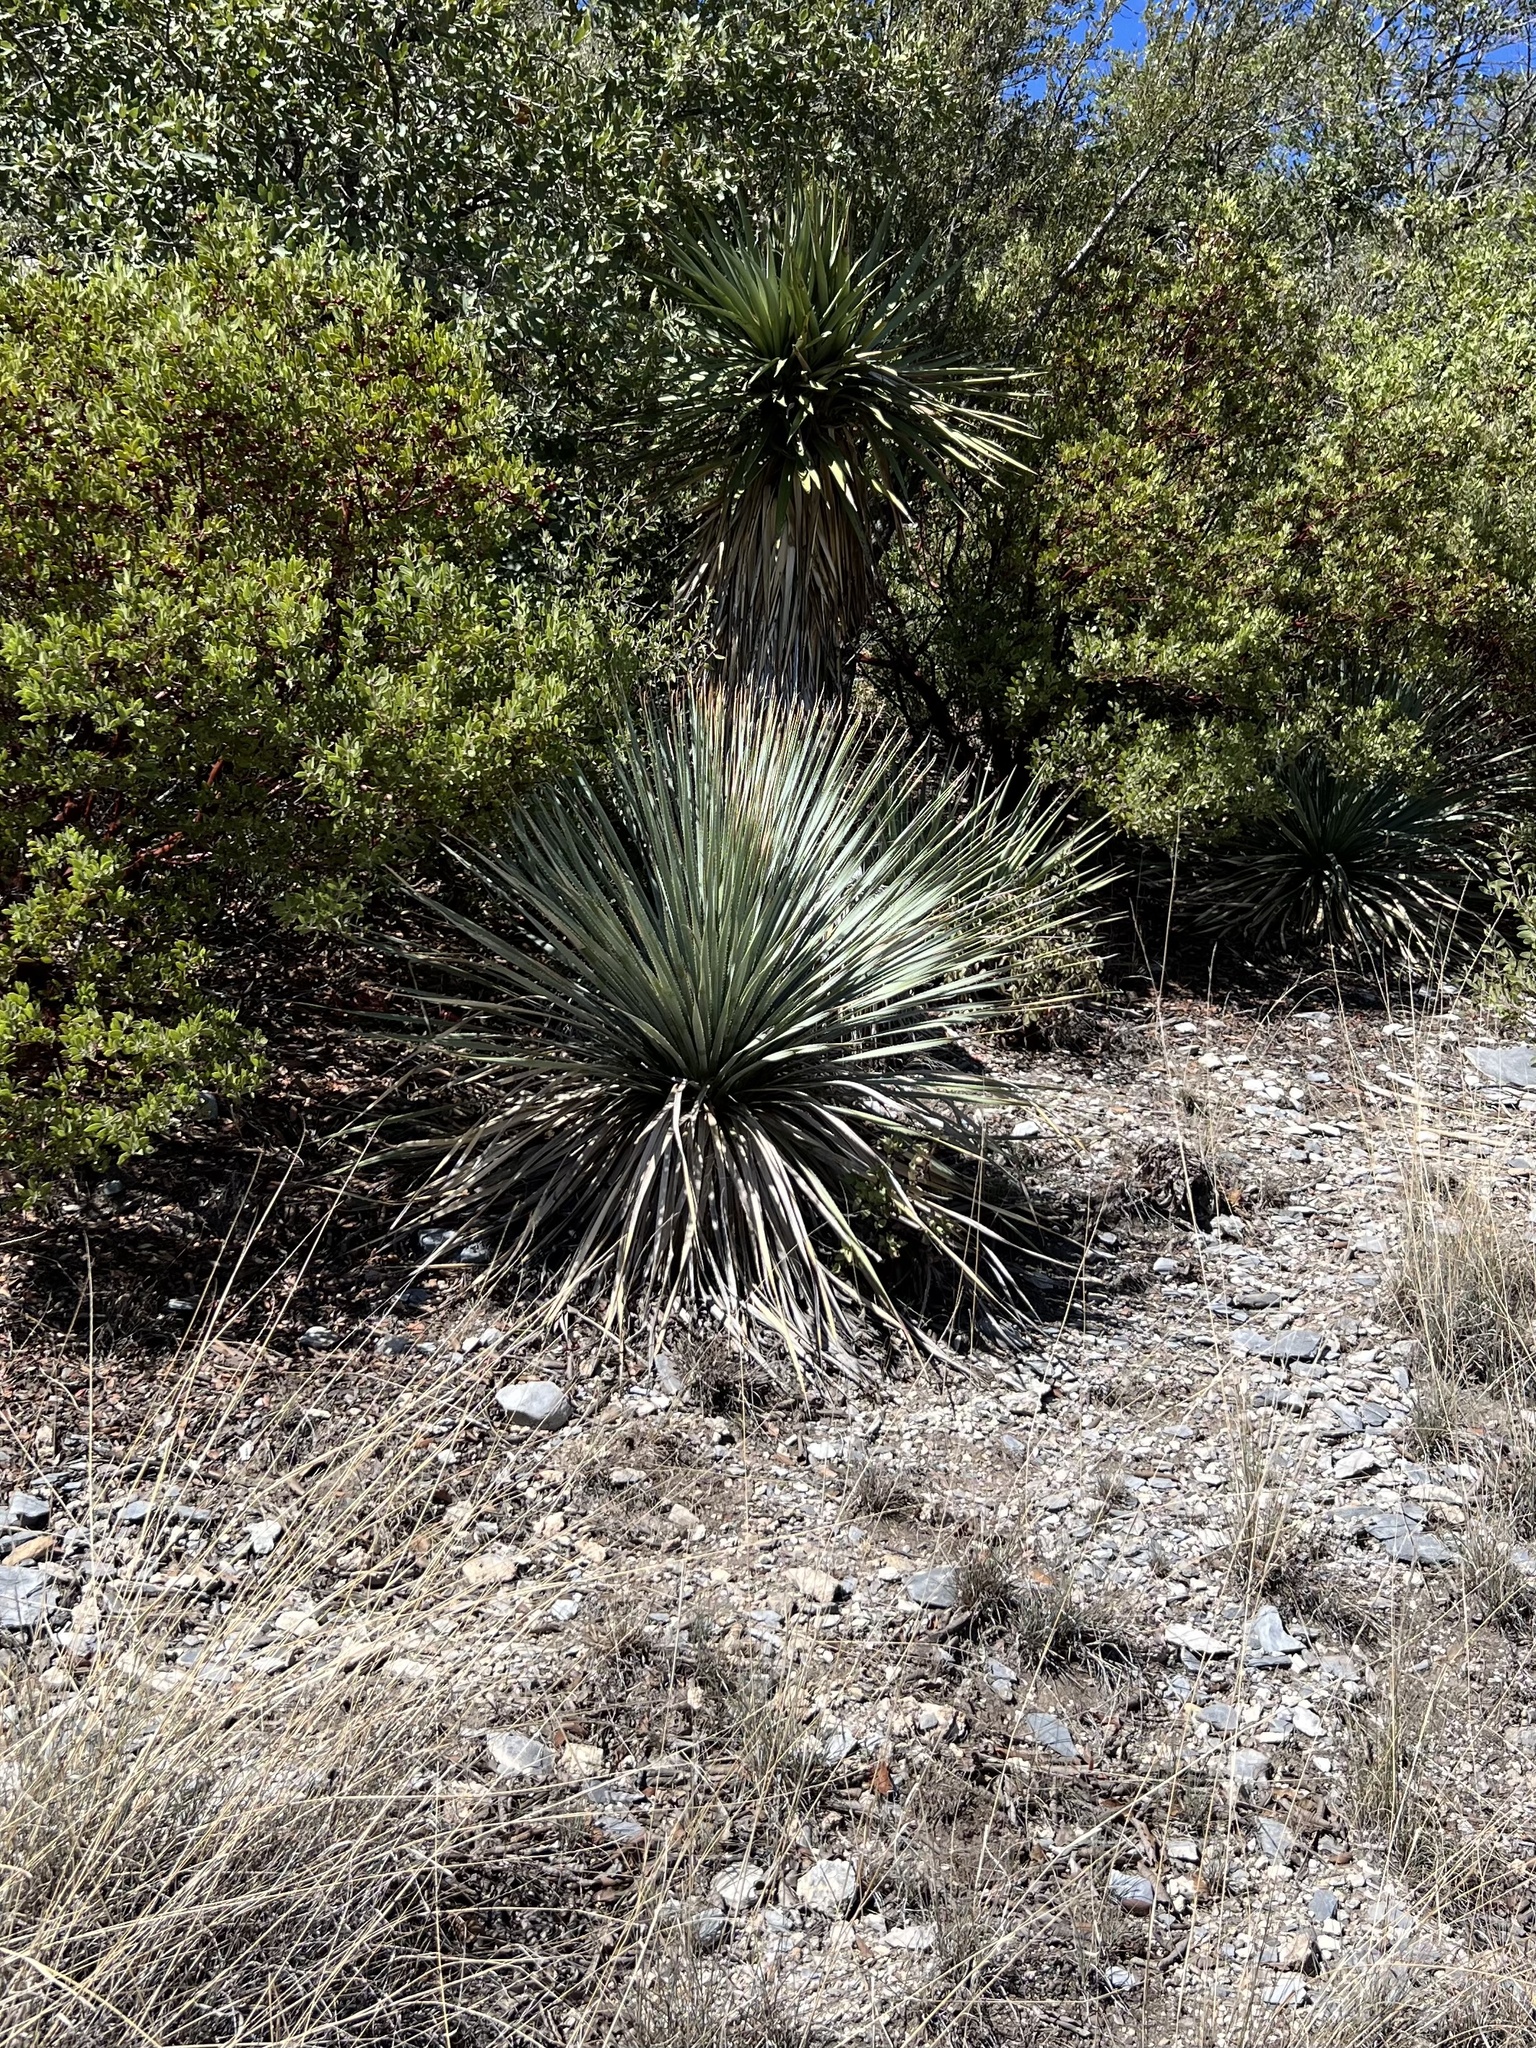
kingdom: Plantae
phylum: Tracheophyta
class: Liliopsida
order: Asparagales
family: Asparagaceae
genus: Dasylirion
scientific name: Dasylirion wheeleri
